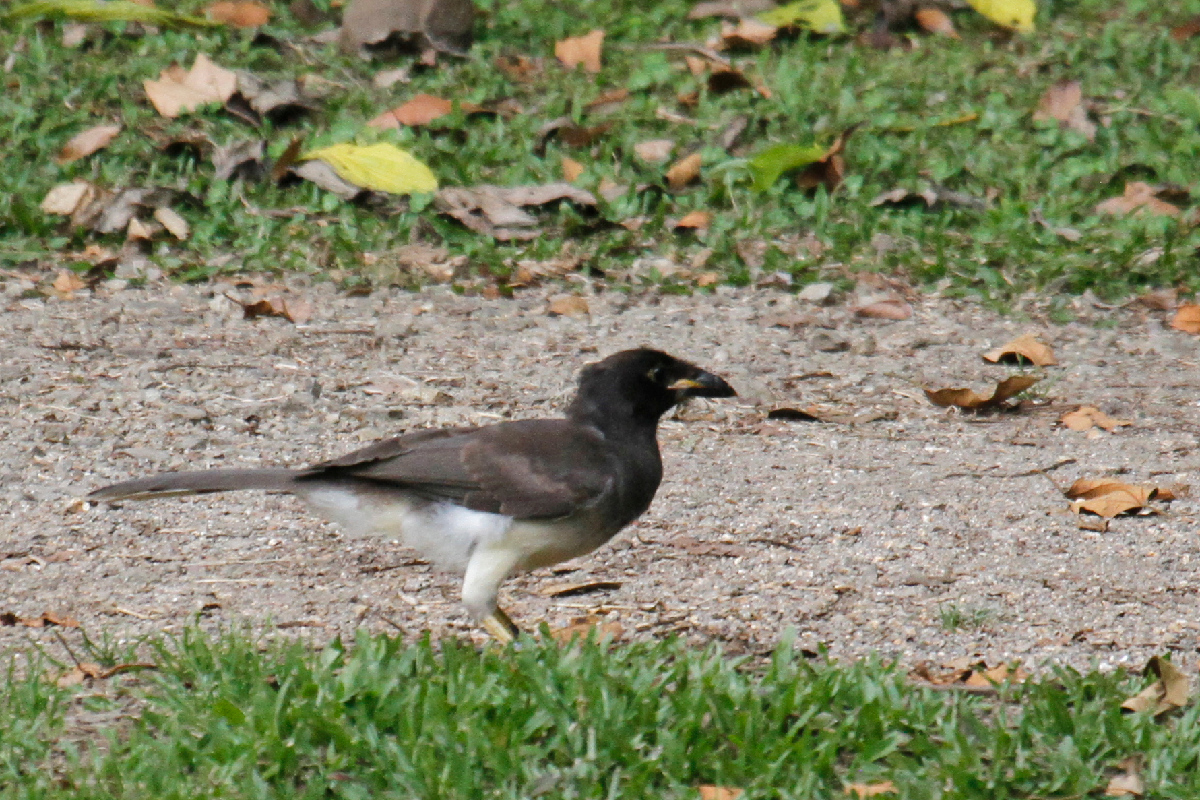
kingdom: Animalia
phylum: Chordata
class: Aves
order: Passeriformes
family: Corvidae
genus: Psilorhinus
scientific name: Psilorhinus morio
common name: Brown jay
